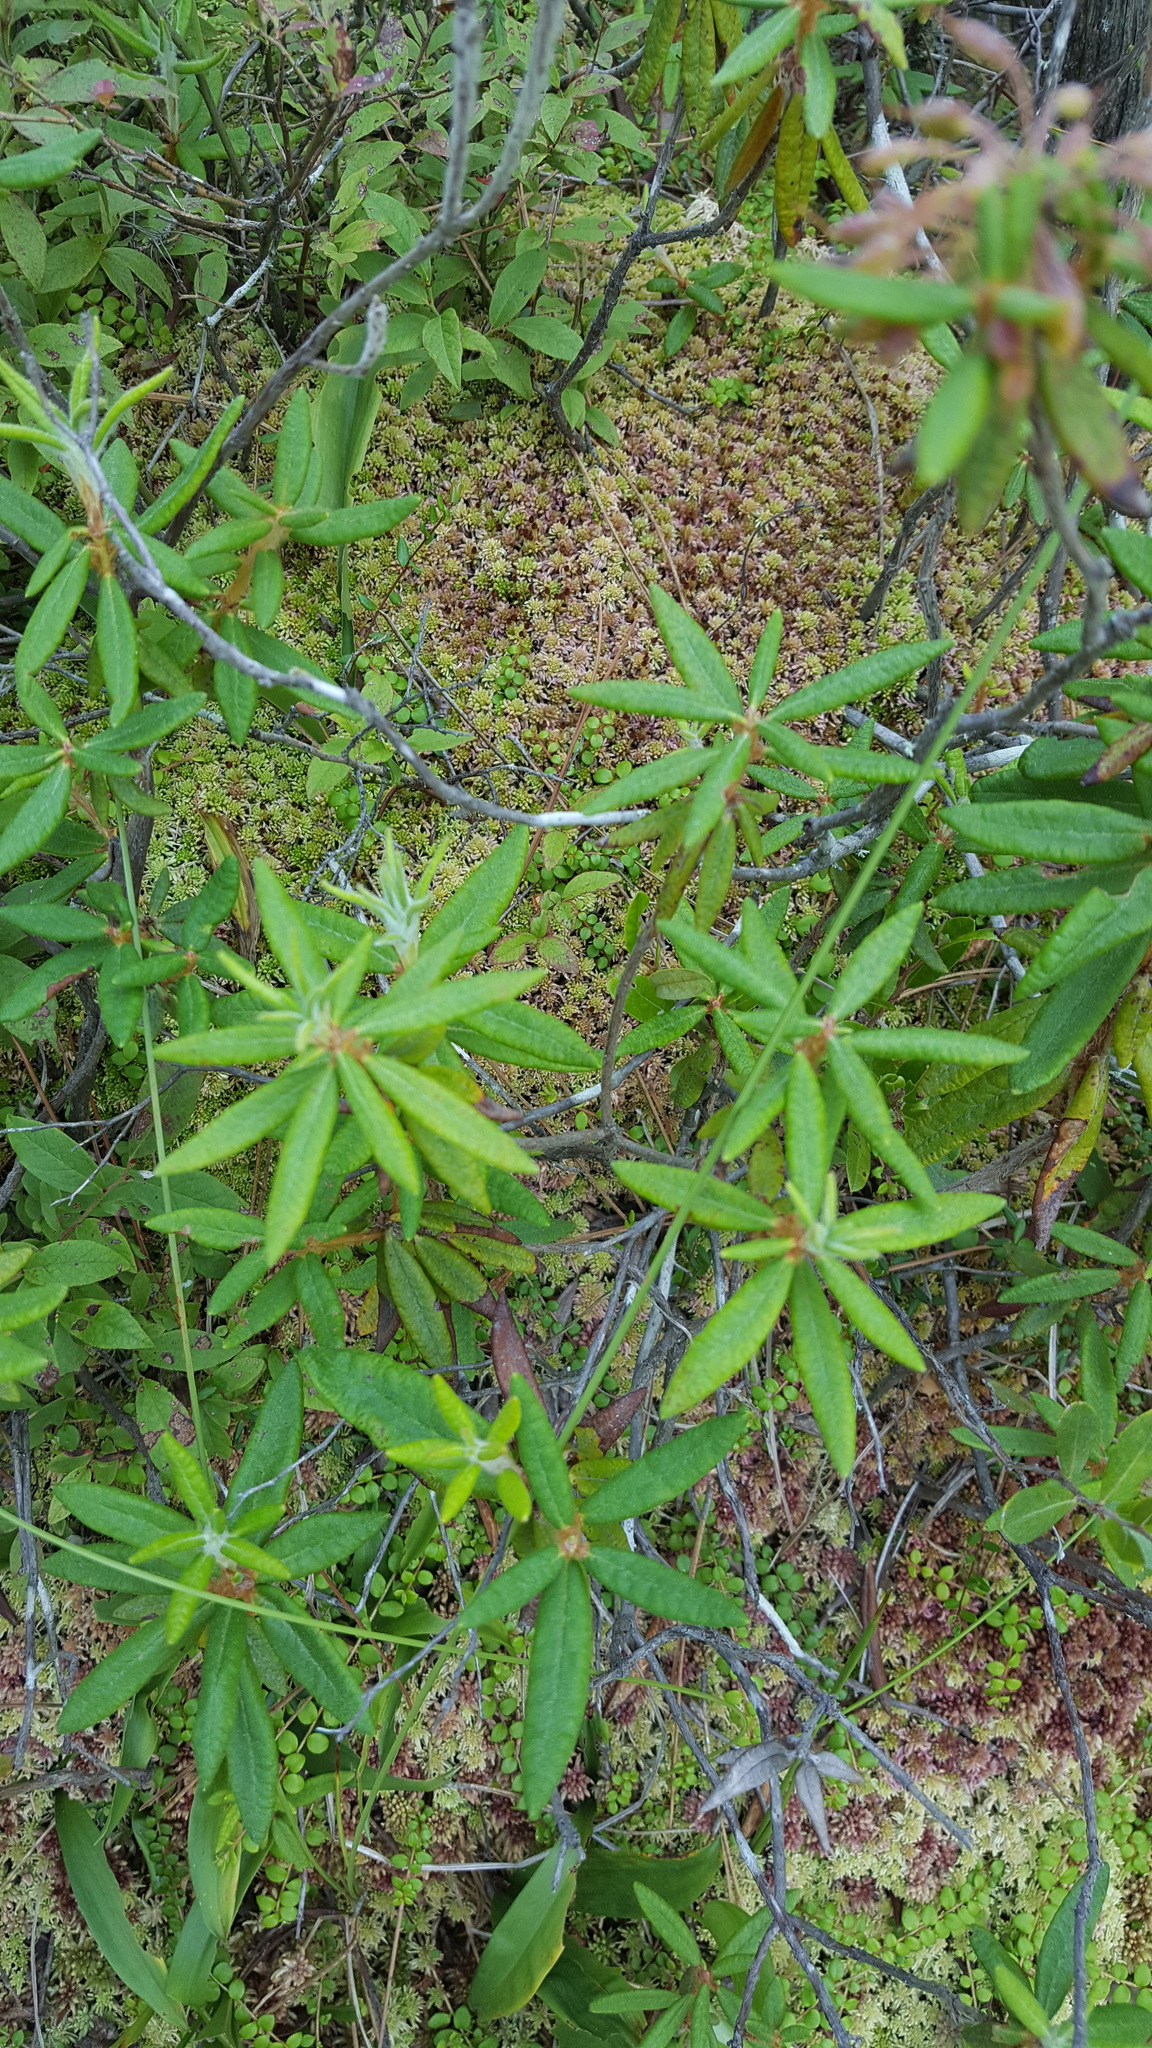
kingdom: Plantae
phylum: Tracheophyta
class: Magnoliopsida
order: Ericales
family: Ericaceae
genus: Rhododendron
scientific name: Rhododendron groenlandicum
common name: Bog labrador tea
